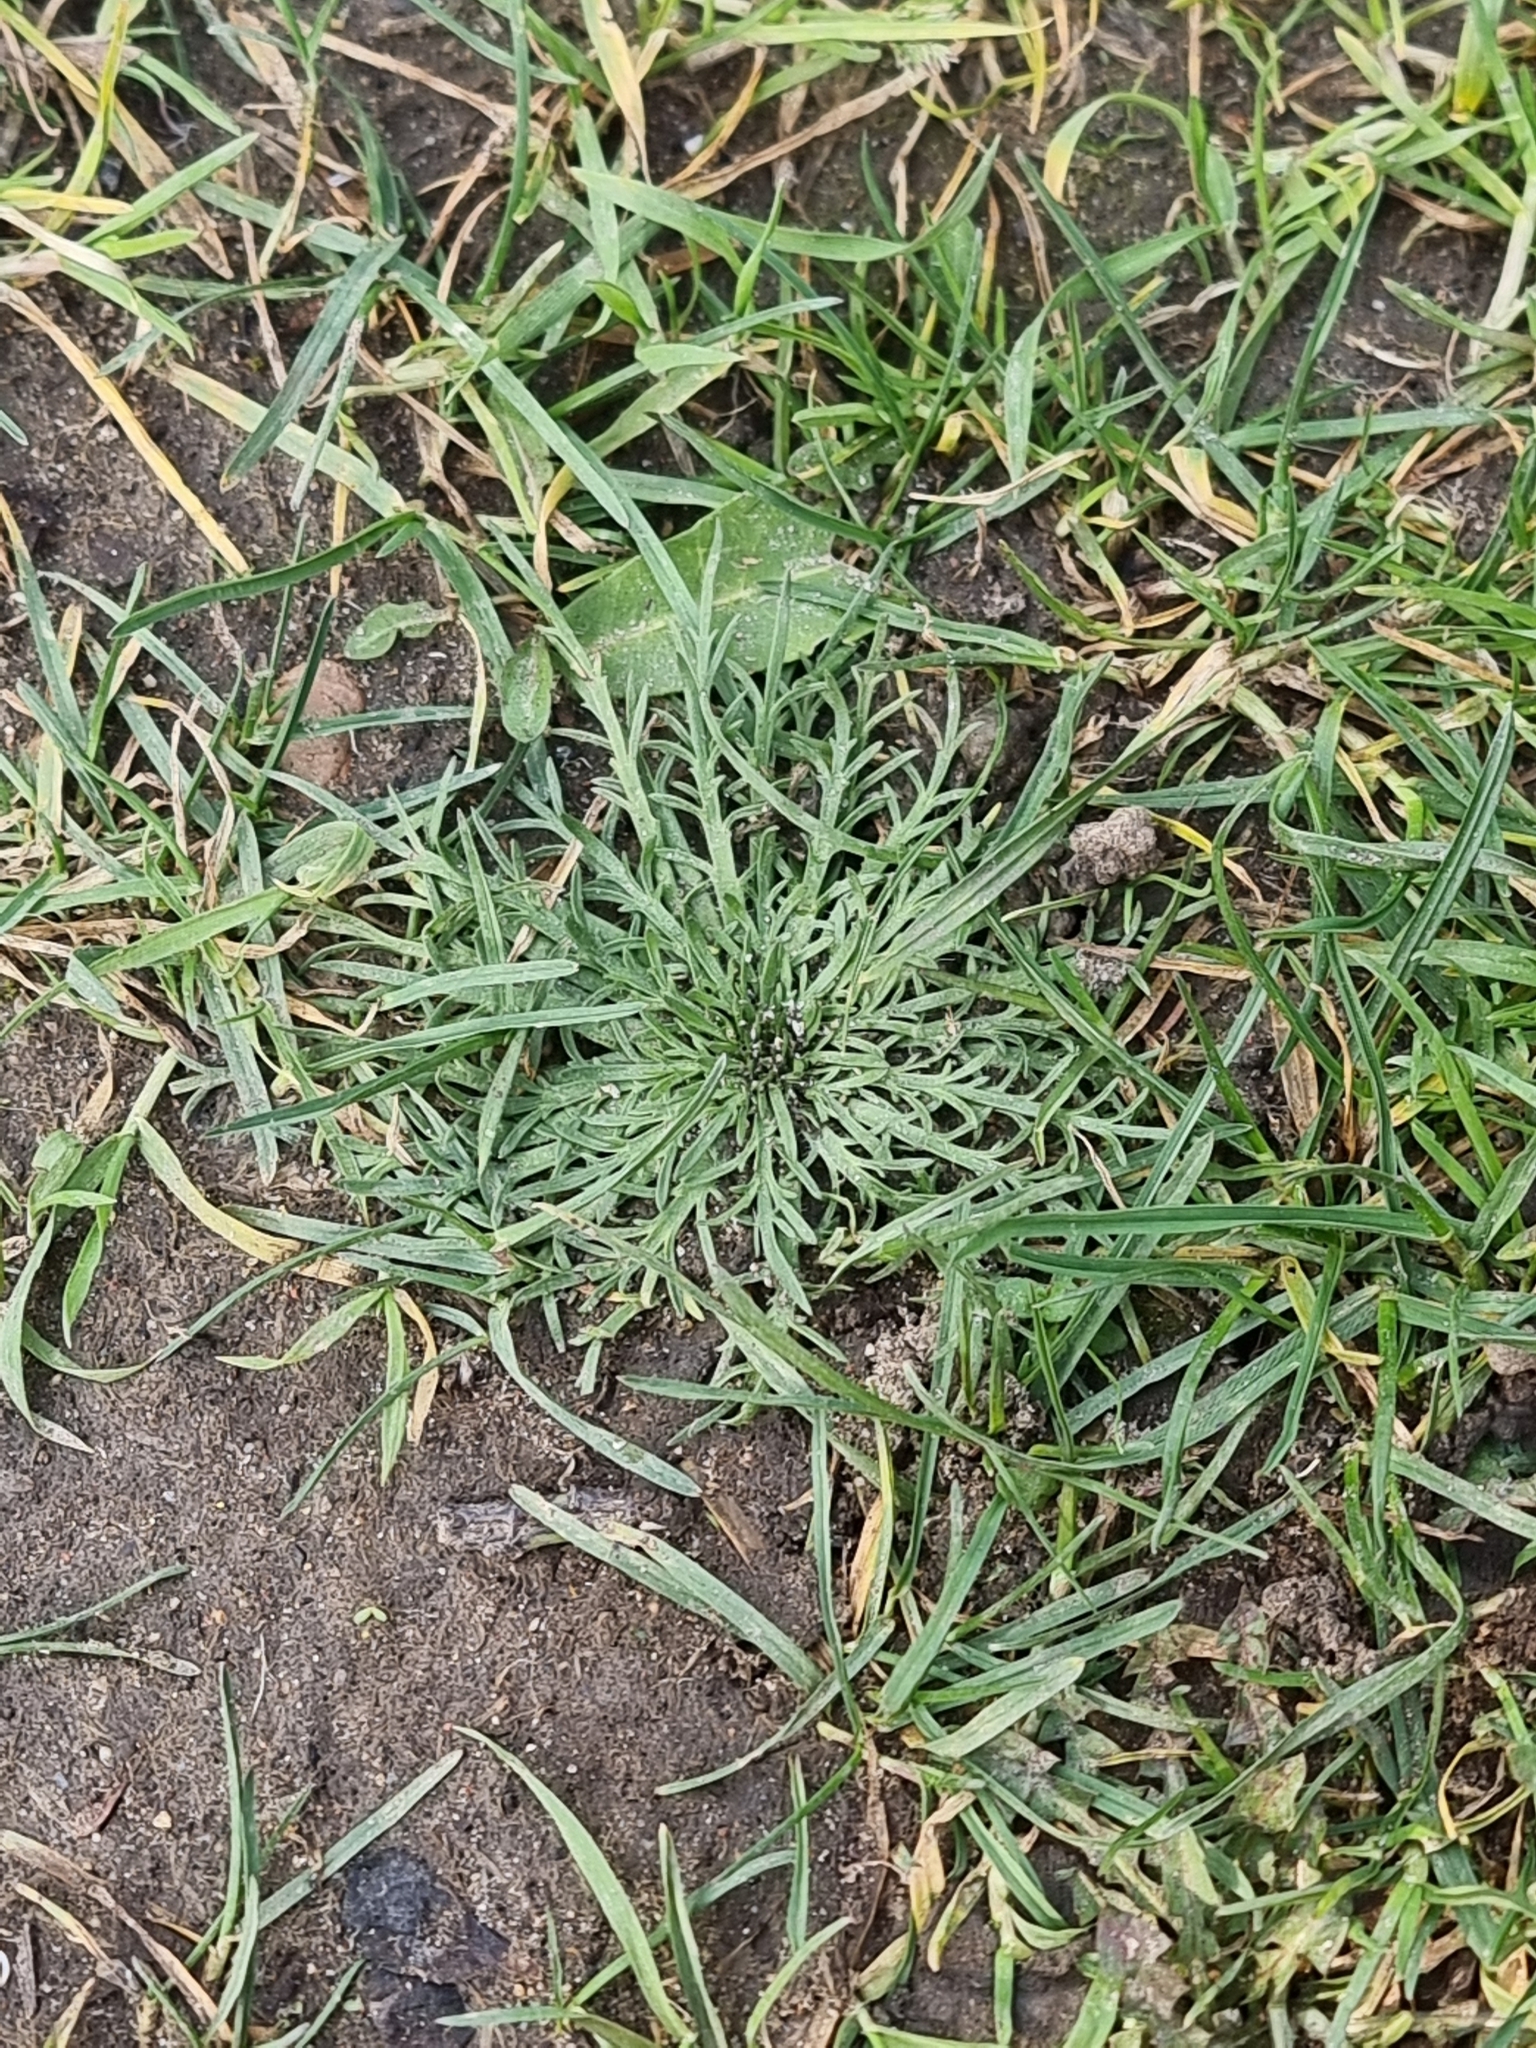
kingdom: Plantae
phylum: Tracheophyta
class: Magnoliopsida
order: Lamiales
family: Plantaginaceae
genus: Plantago
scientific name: Plantago coronopus
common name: Buck's-horn plantain
